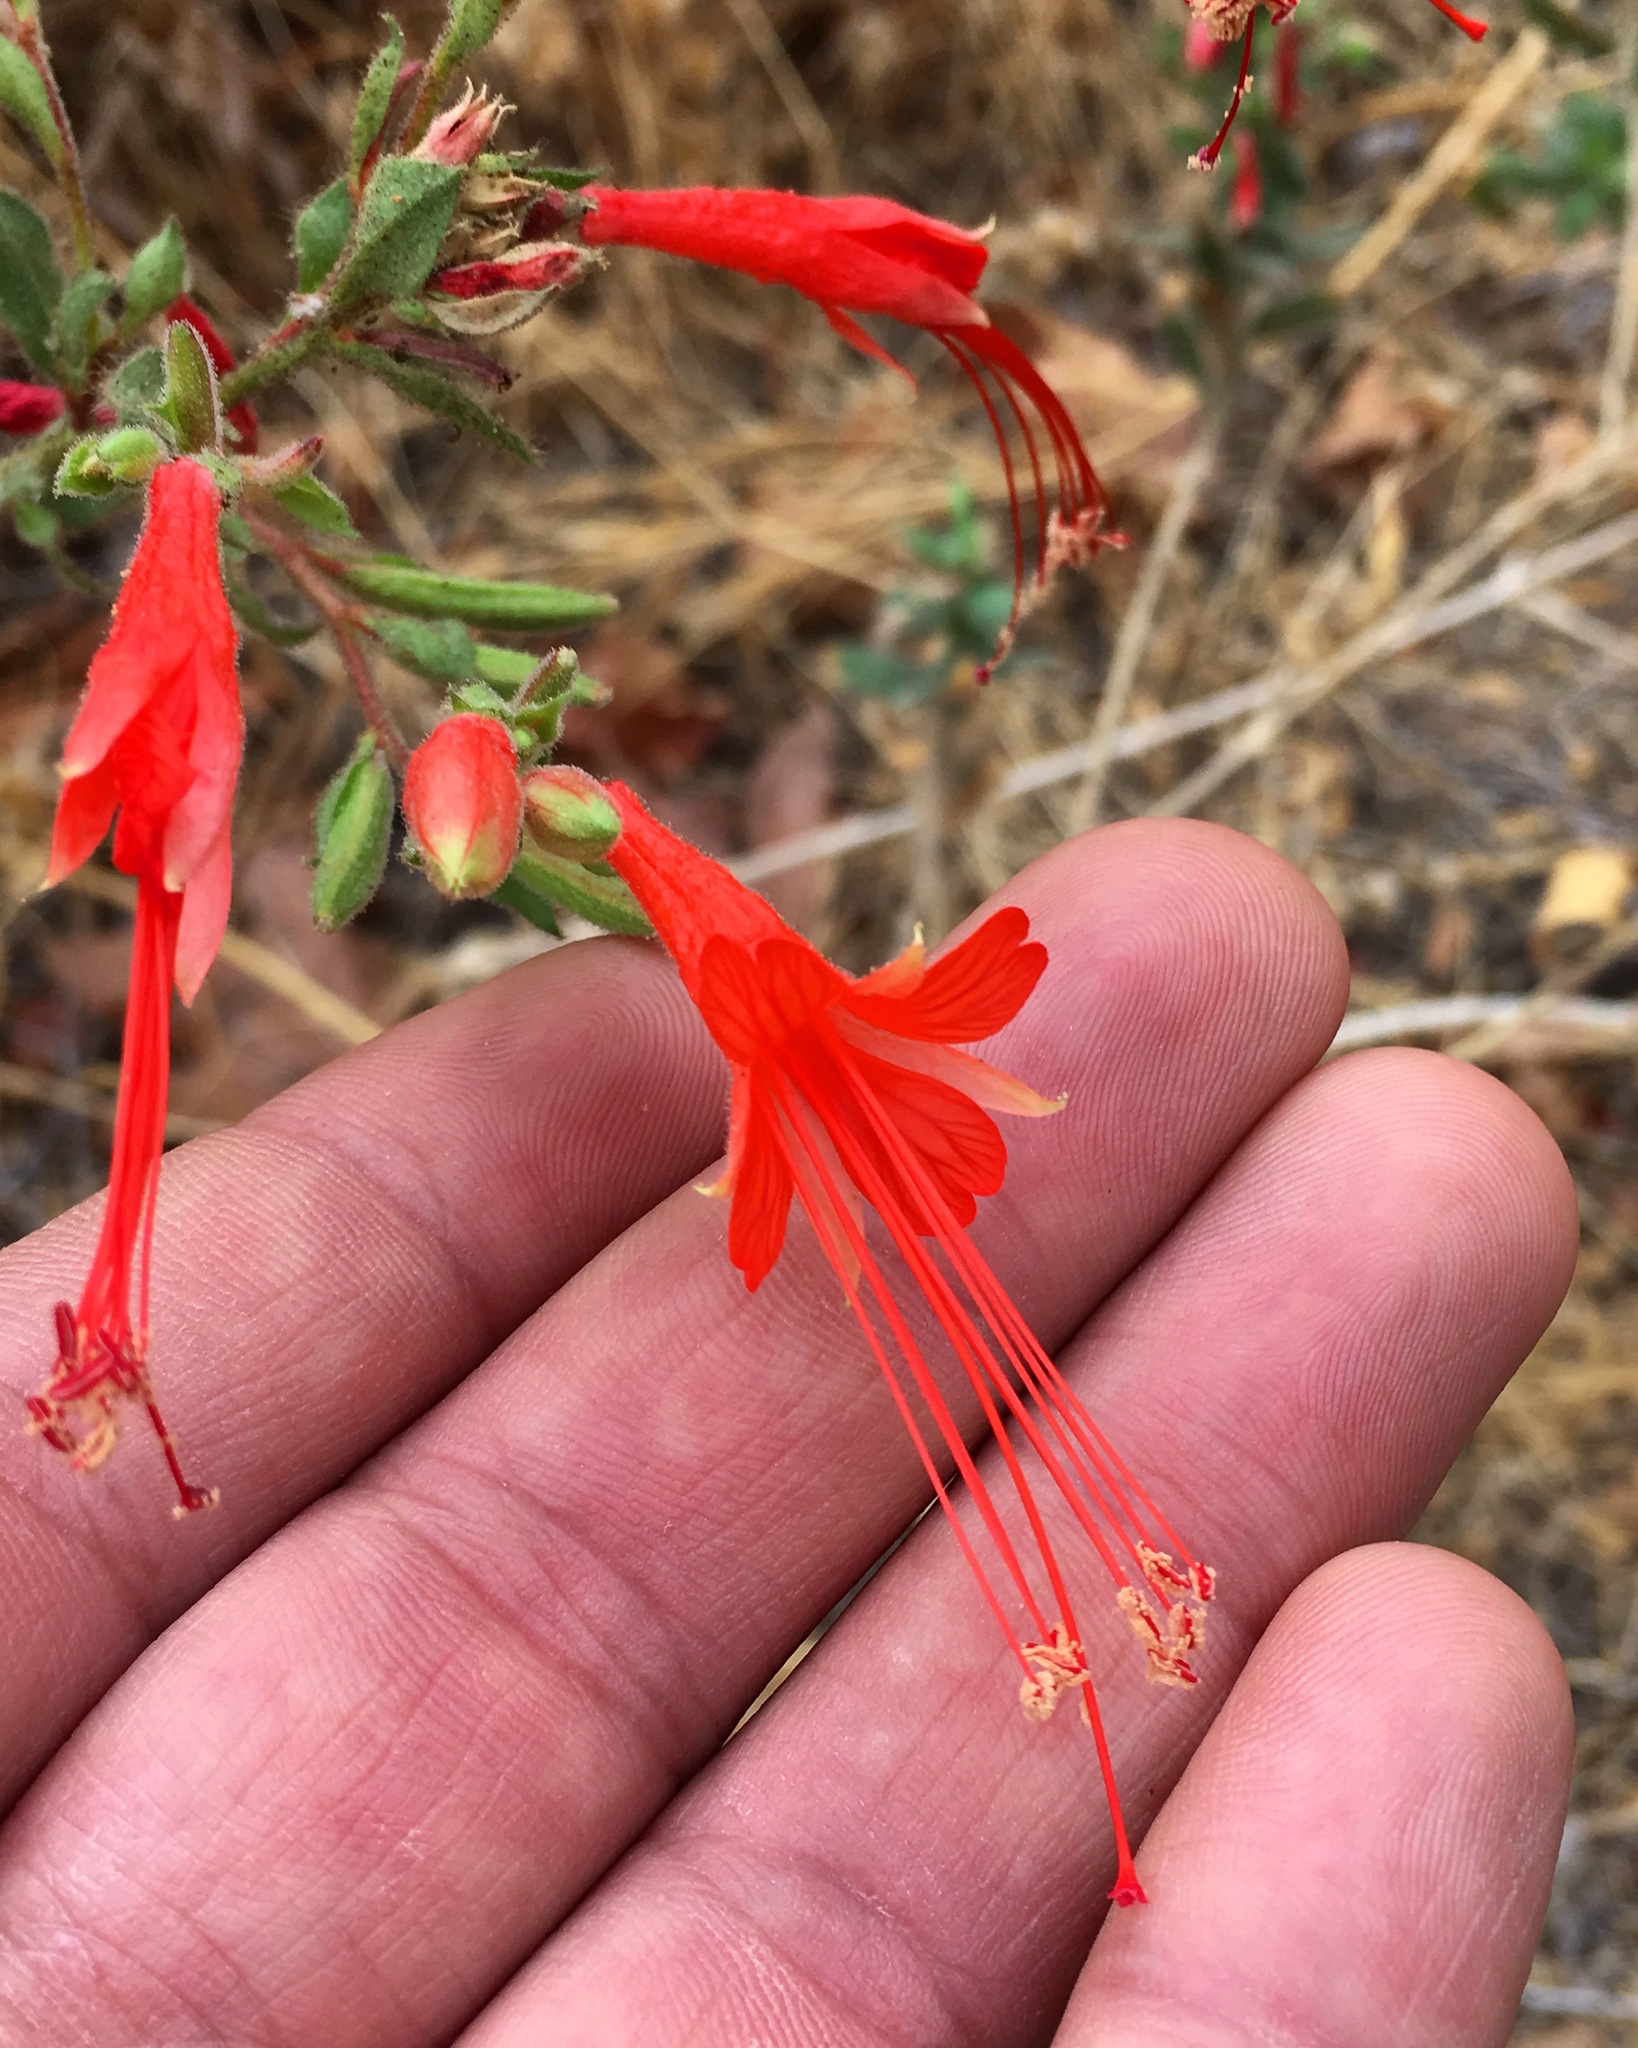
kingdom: Plantae
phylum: Tracheophyta
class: Magnoliopsida
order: Myrtales
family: Onagraceae
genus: Epilobium
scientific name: Epilobium canum
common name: California-fuchsia
